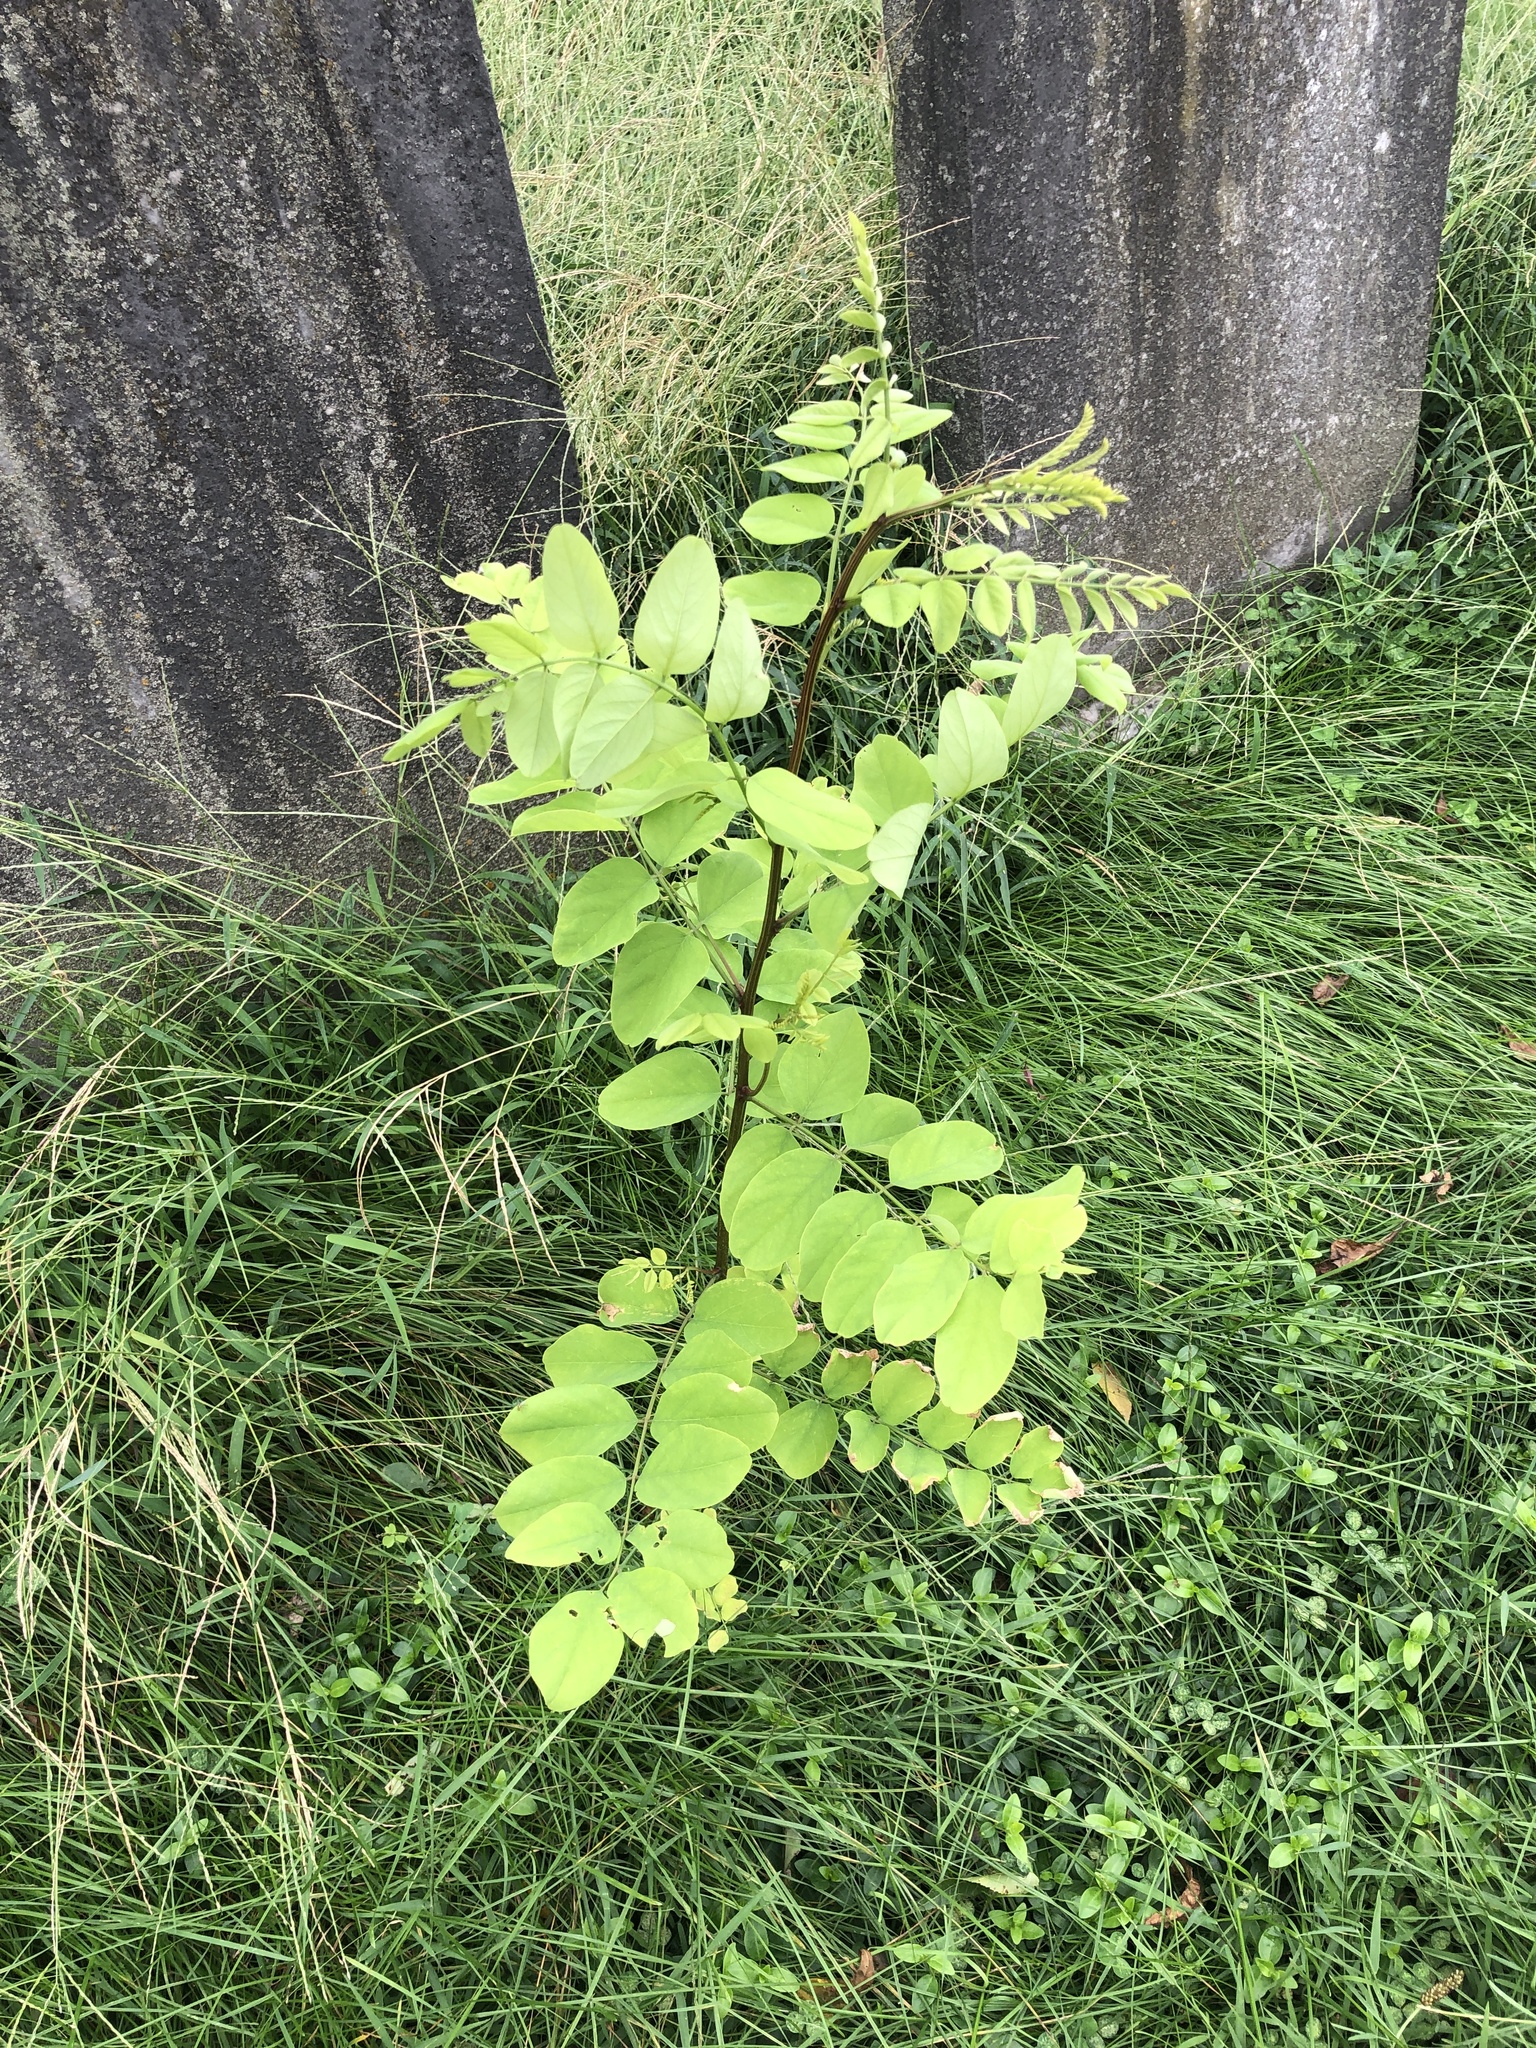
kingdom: Plantae
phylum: Tracheophyta
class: Magnoliopsida
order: Fabales
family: Fabaceae
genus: Robinia
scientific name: Robinia pseudoacacia
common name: Black locust
